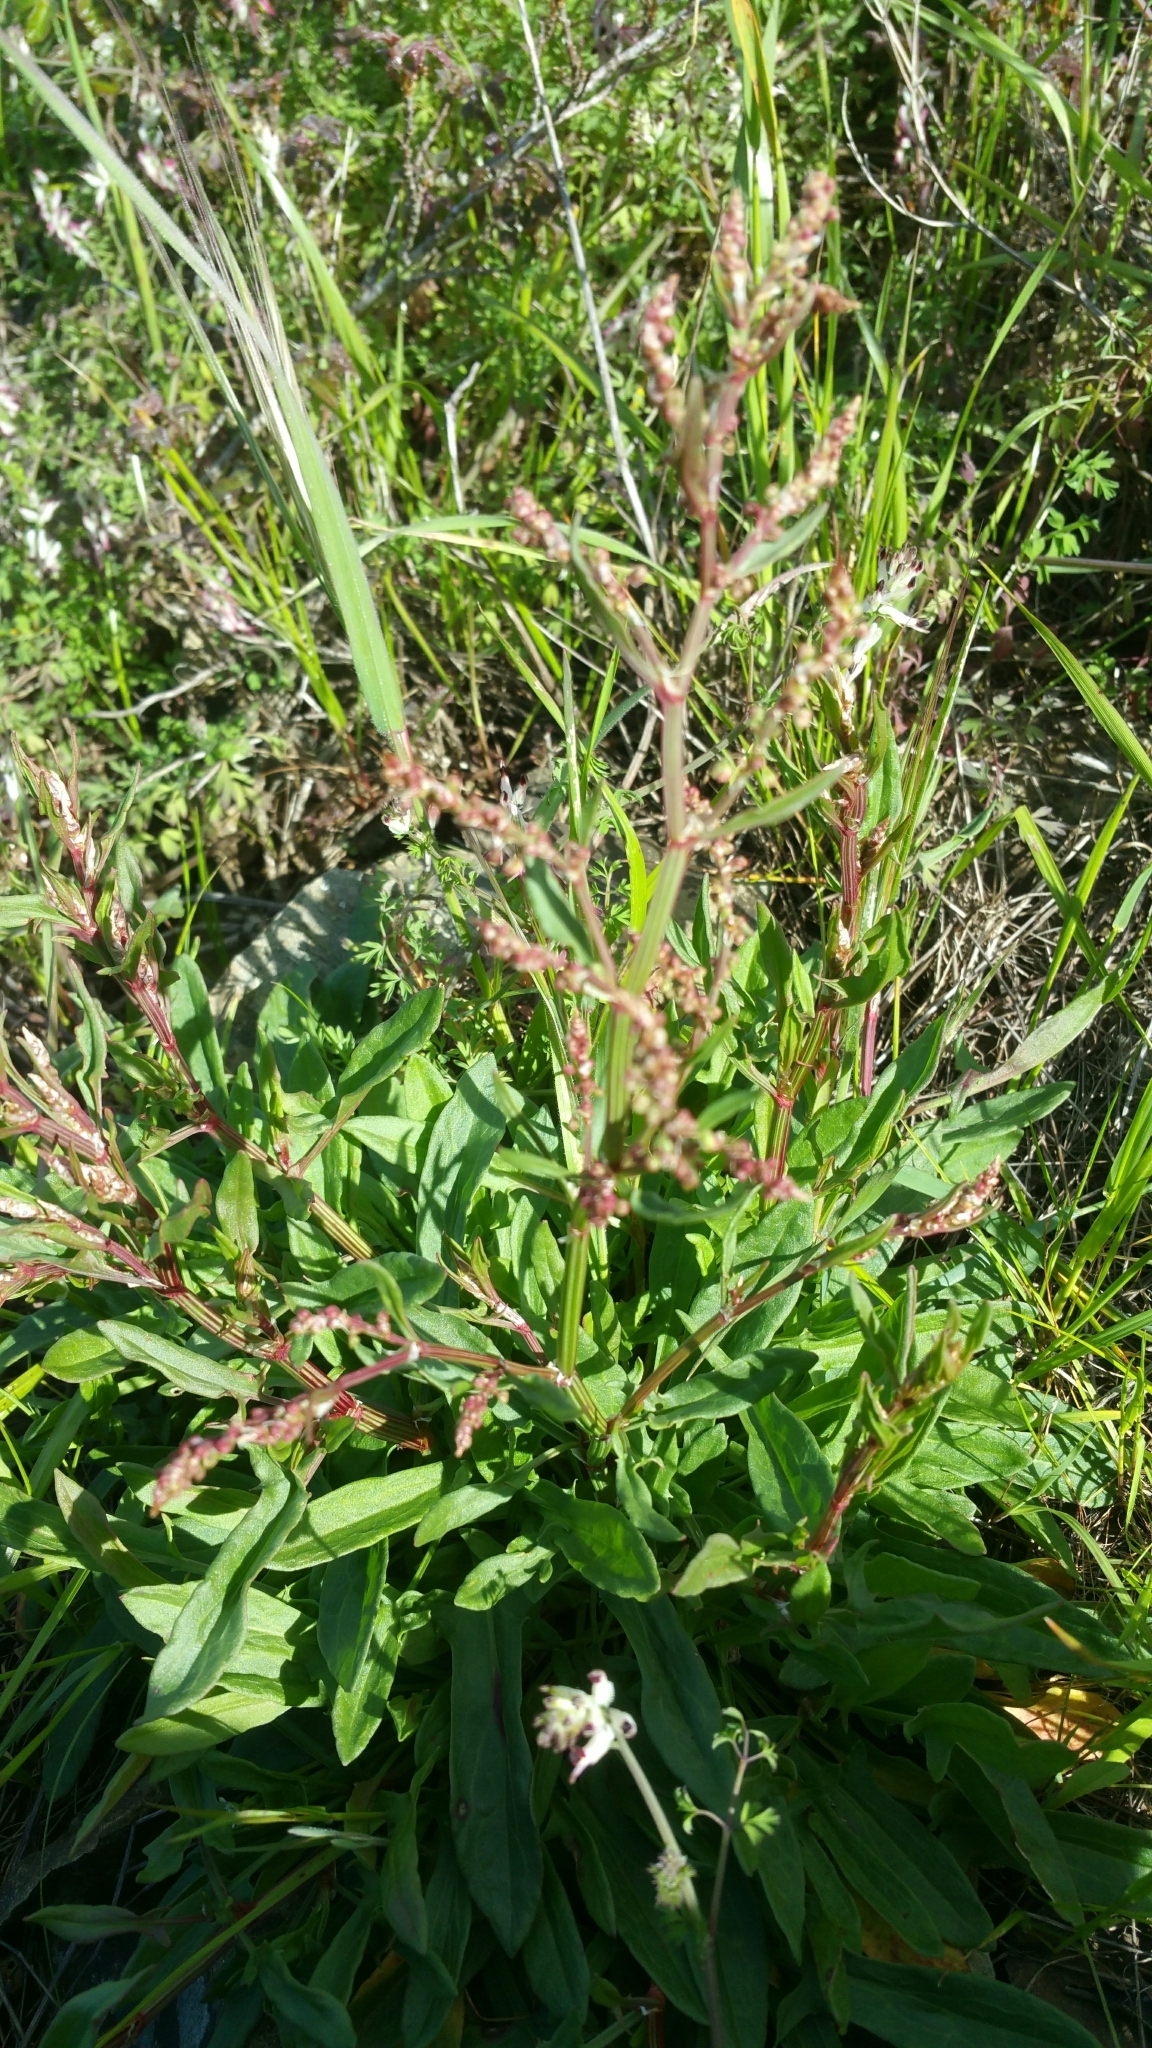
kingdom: Plantae
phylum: Tracheophyta
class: Magnoliopsida
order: Caryophyllales
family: Polygonaceae
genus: Rumex
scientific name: Rumex acetosella
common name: Common sheep sorrel
